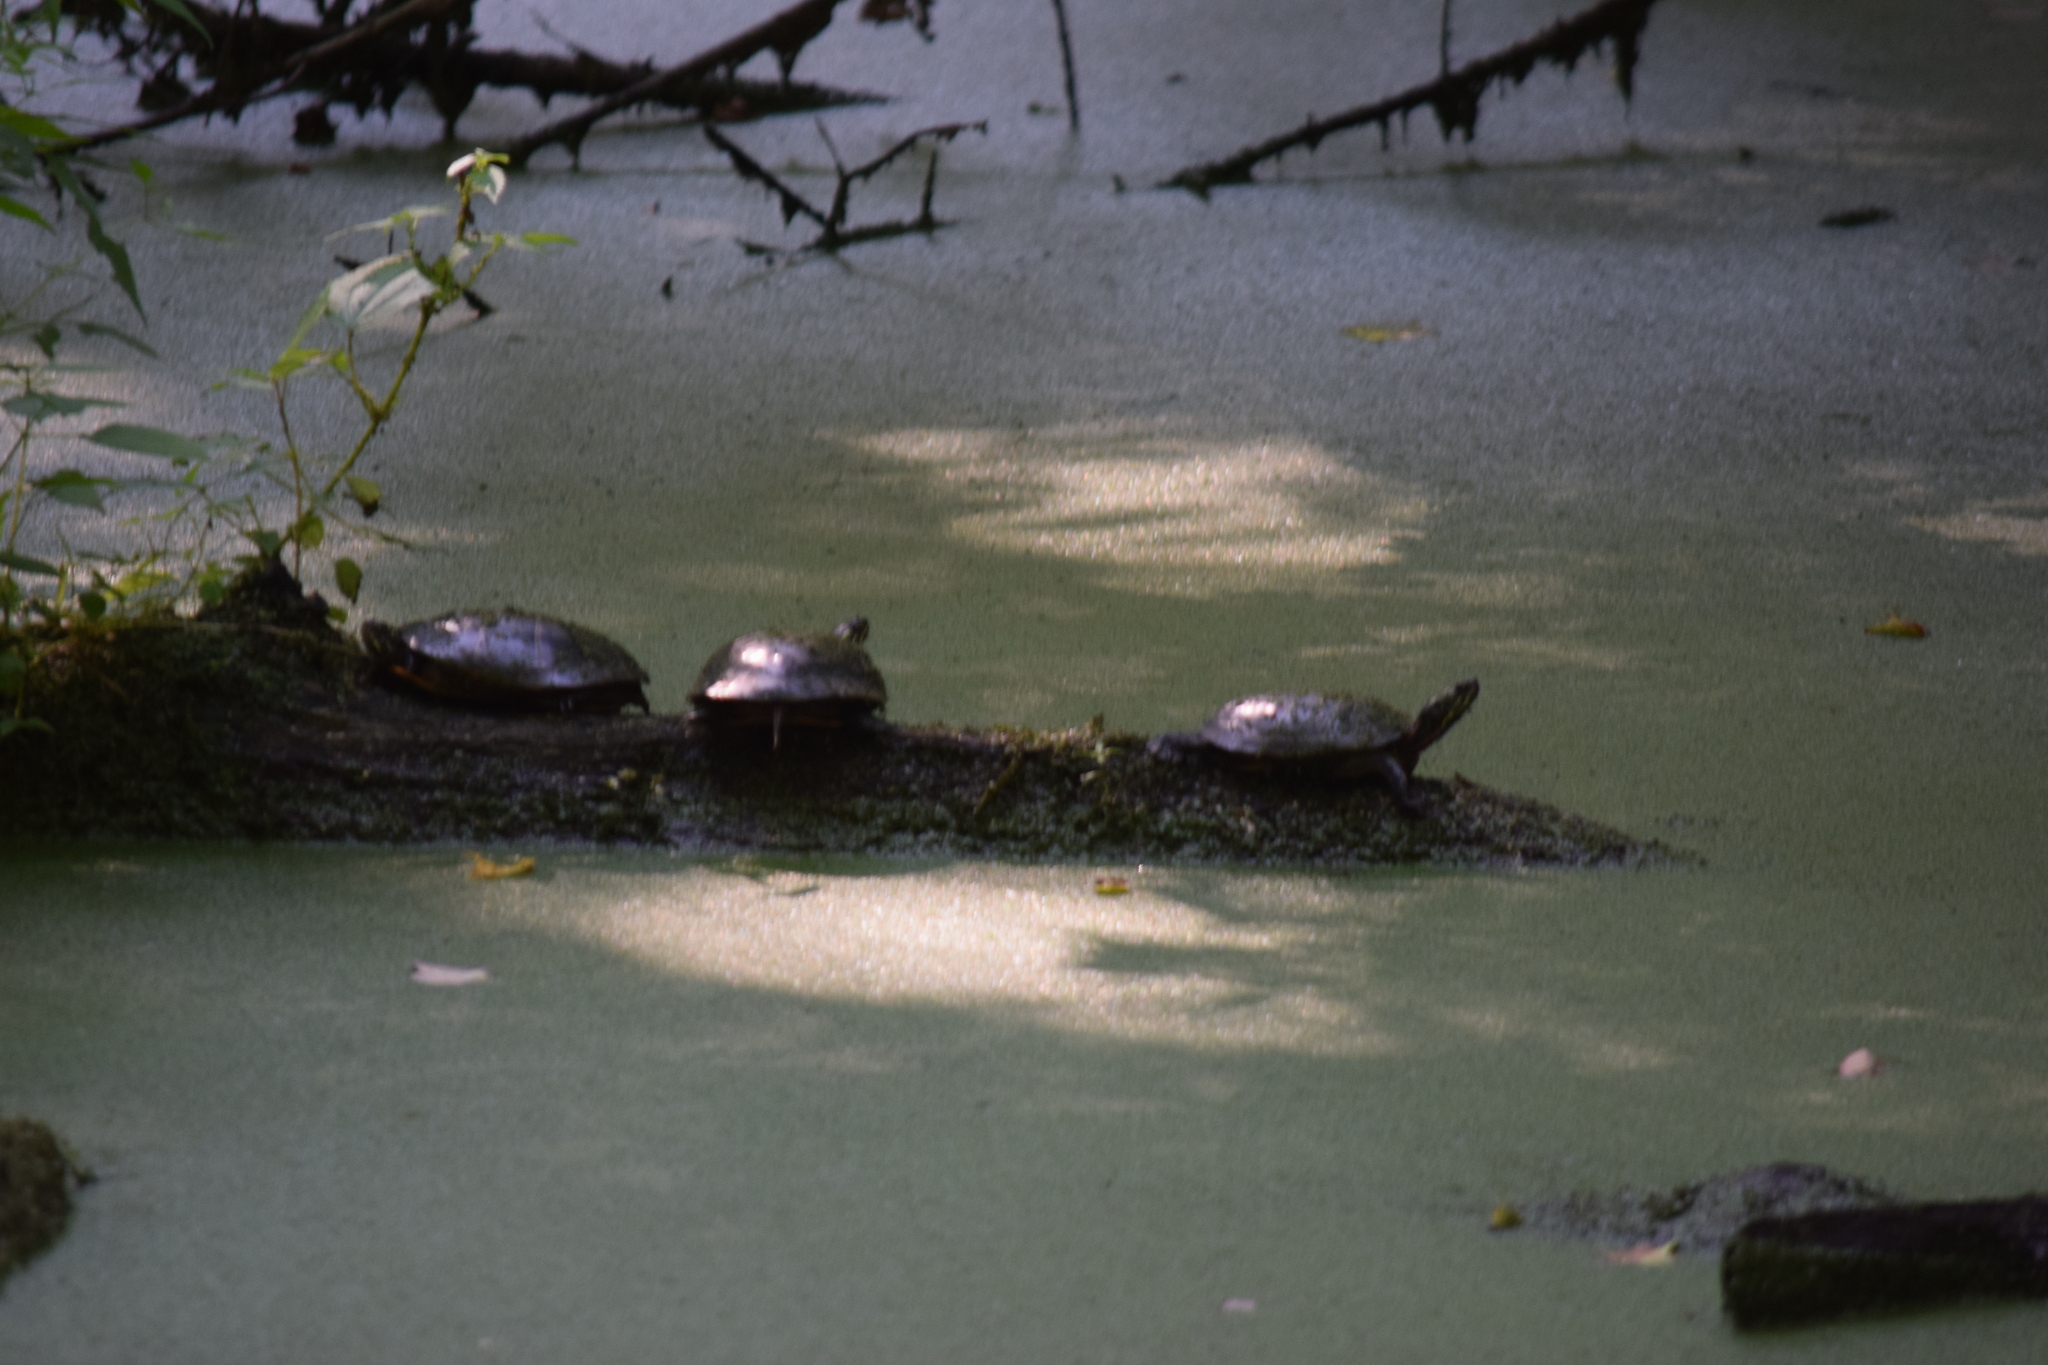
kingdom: Animalia
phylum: Chordata
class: Testudines
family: Emydidae
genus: Chrysemys
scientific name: Chrysemys picta
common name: Painted turtle
